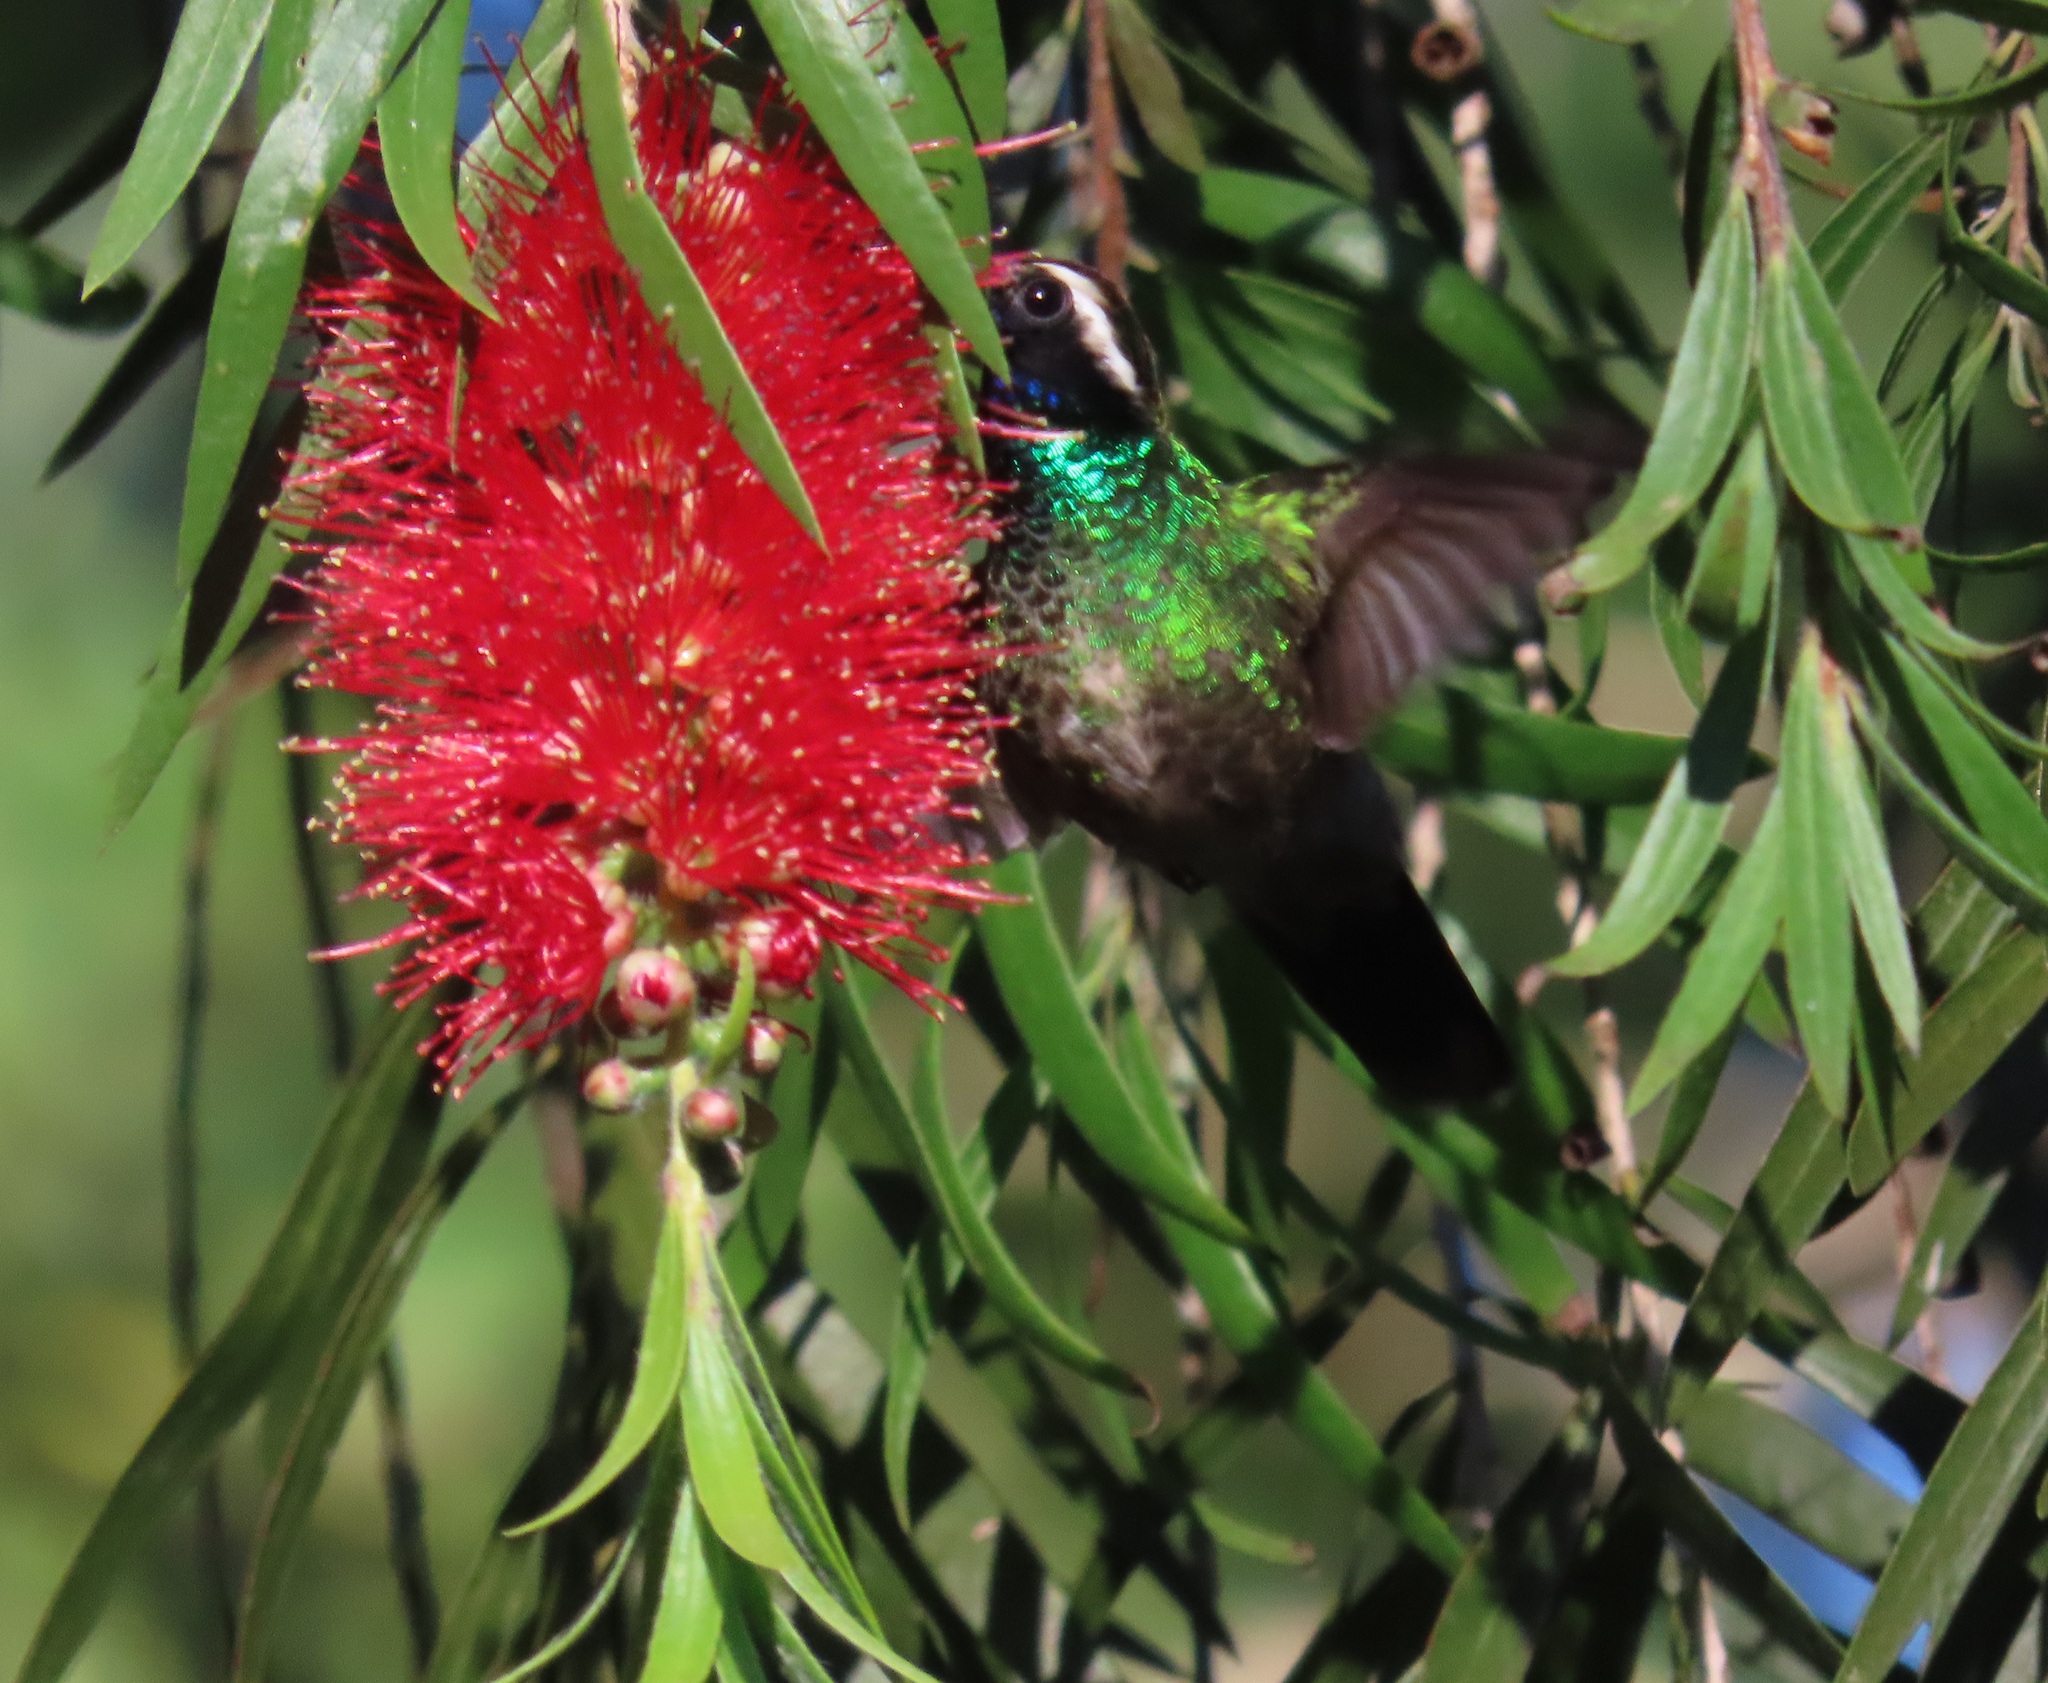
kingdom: Animalia
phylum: Chordata
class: Aves
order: Apodiformes
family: Trochilidae
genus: Basilinna
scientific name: Basilinna leucotis
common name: White-eared hummingbird
